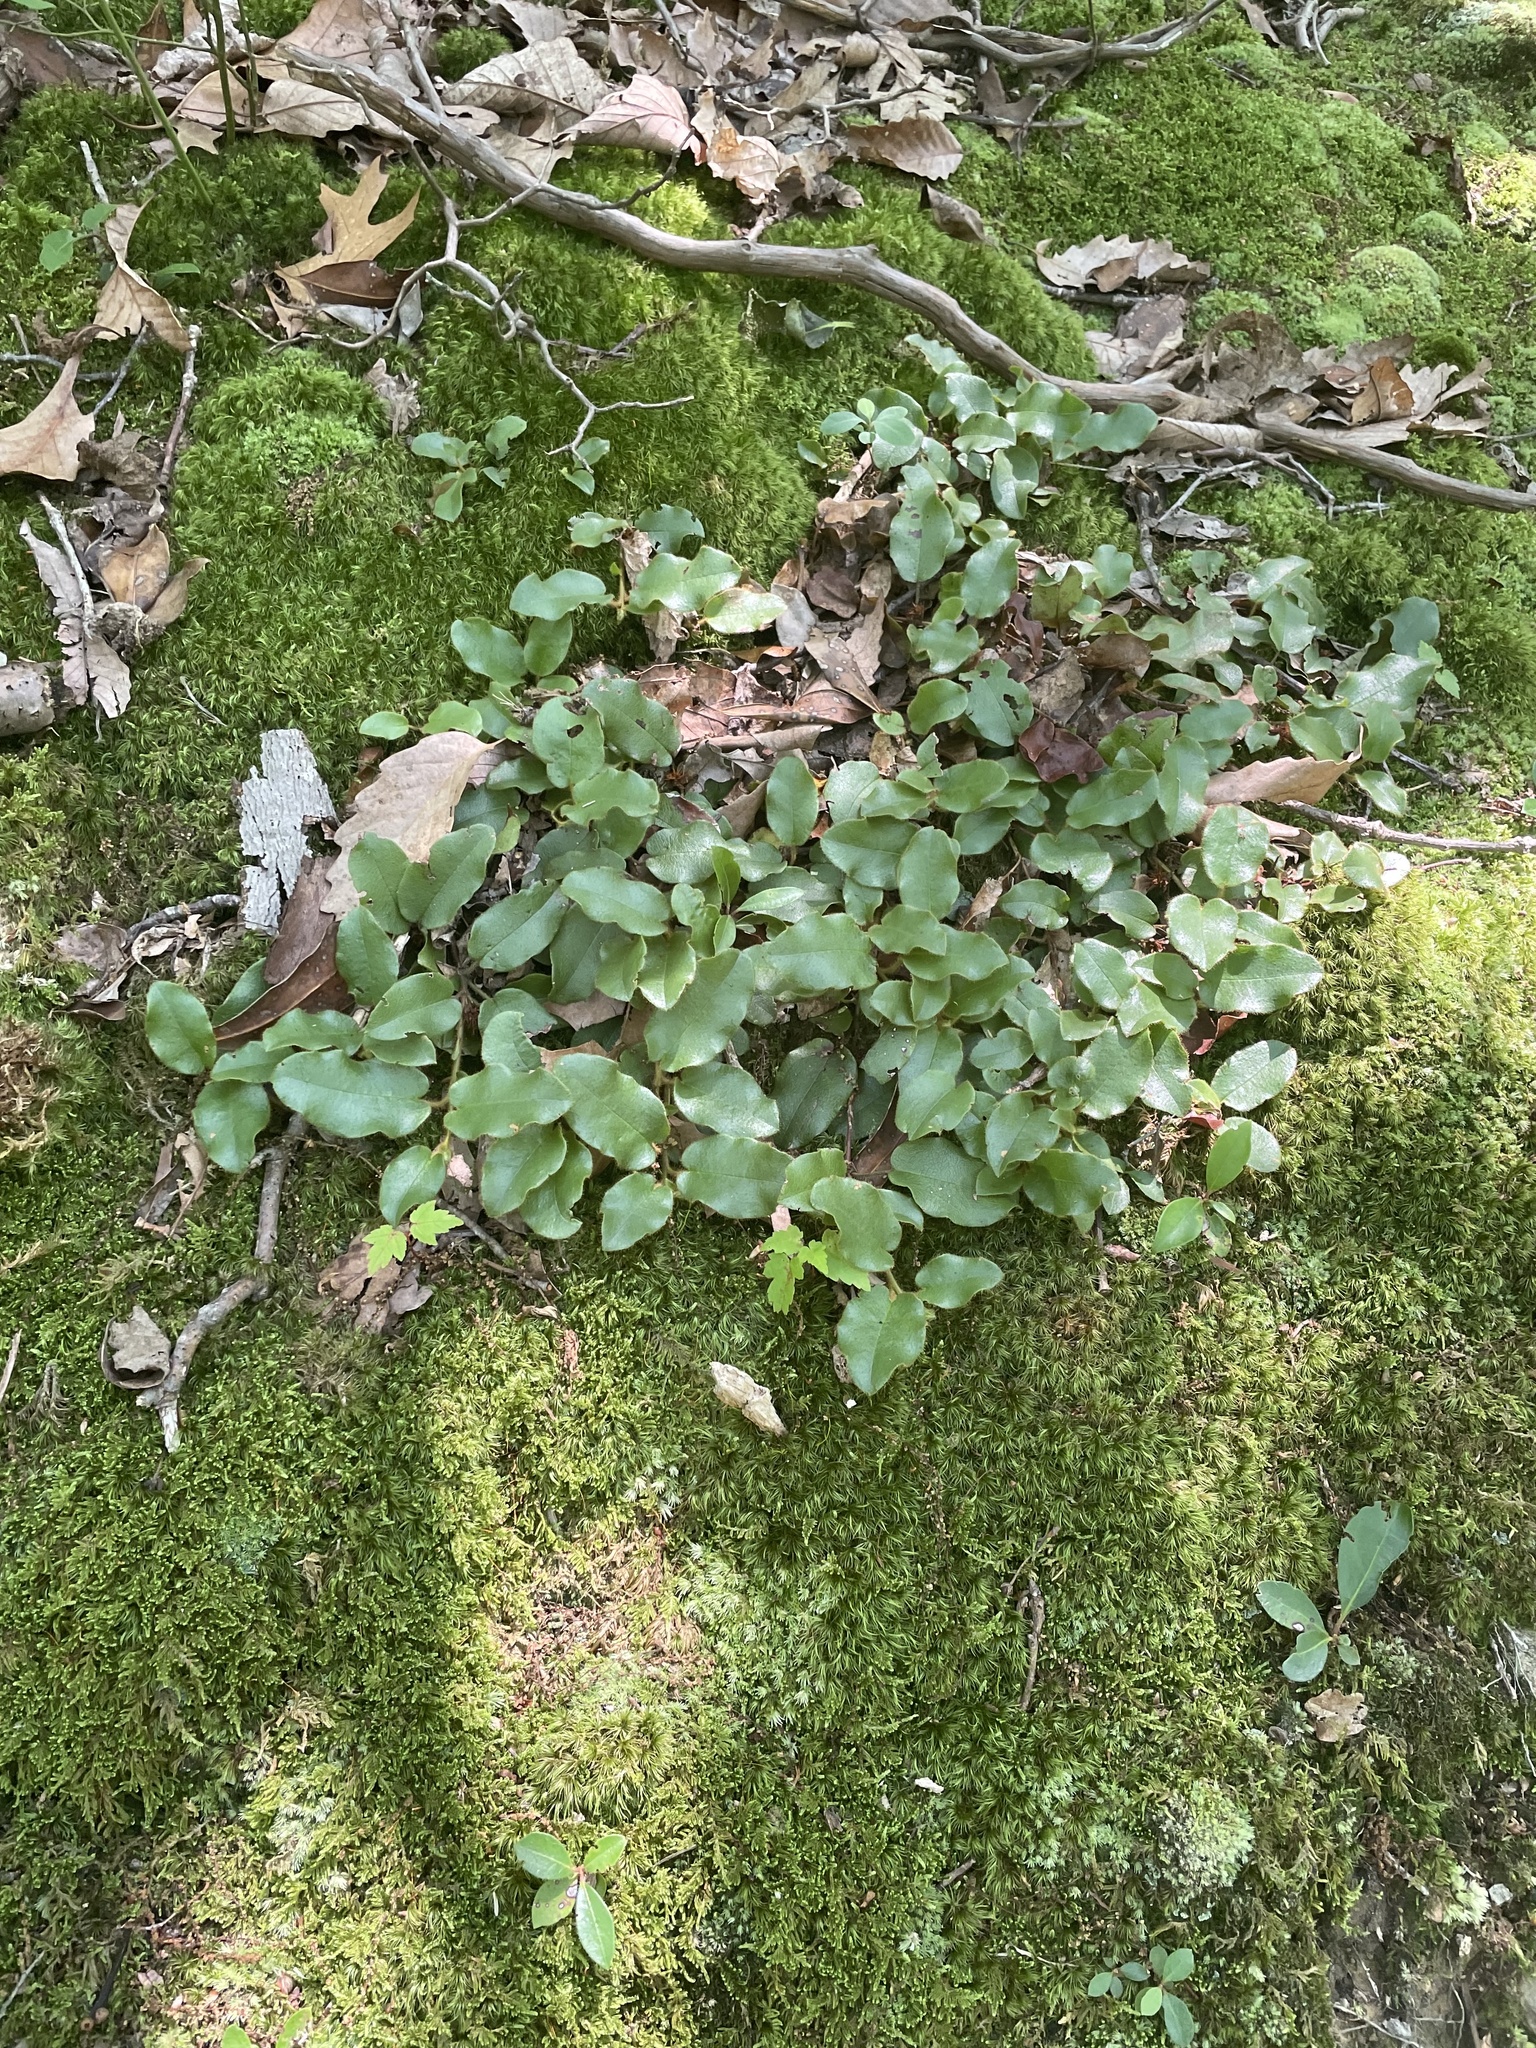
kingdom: Plantae
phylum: Tracheophyta
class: Magnoliopsida
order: Ericales
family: Ericaceae
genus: Epigaea
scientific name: Epigaea repens
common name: Gravelroot
